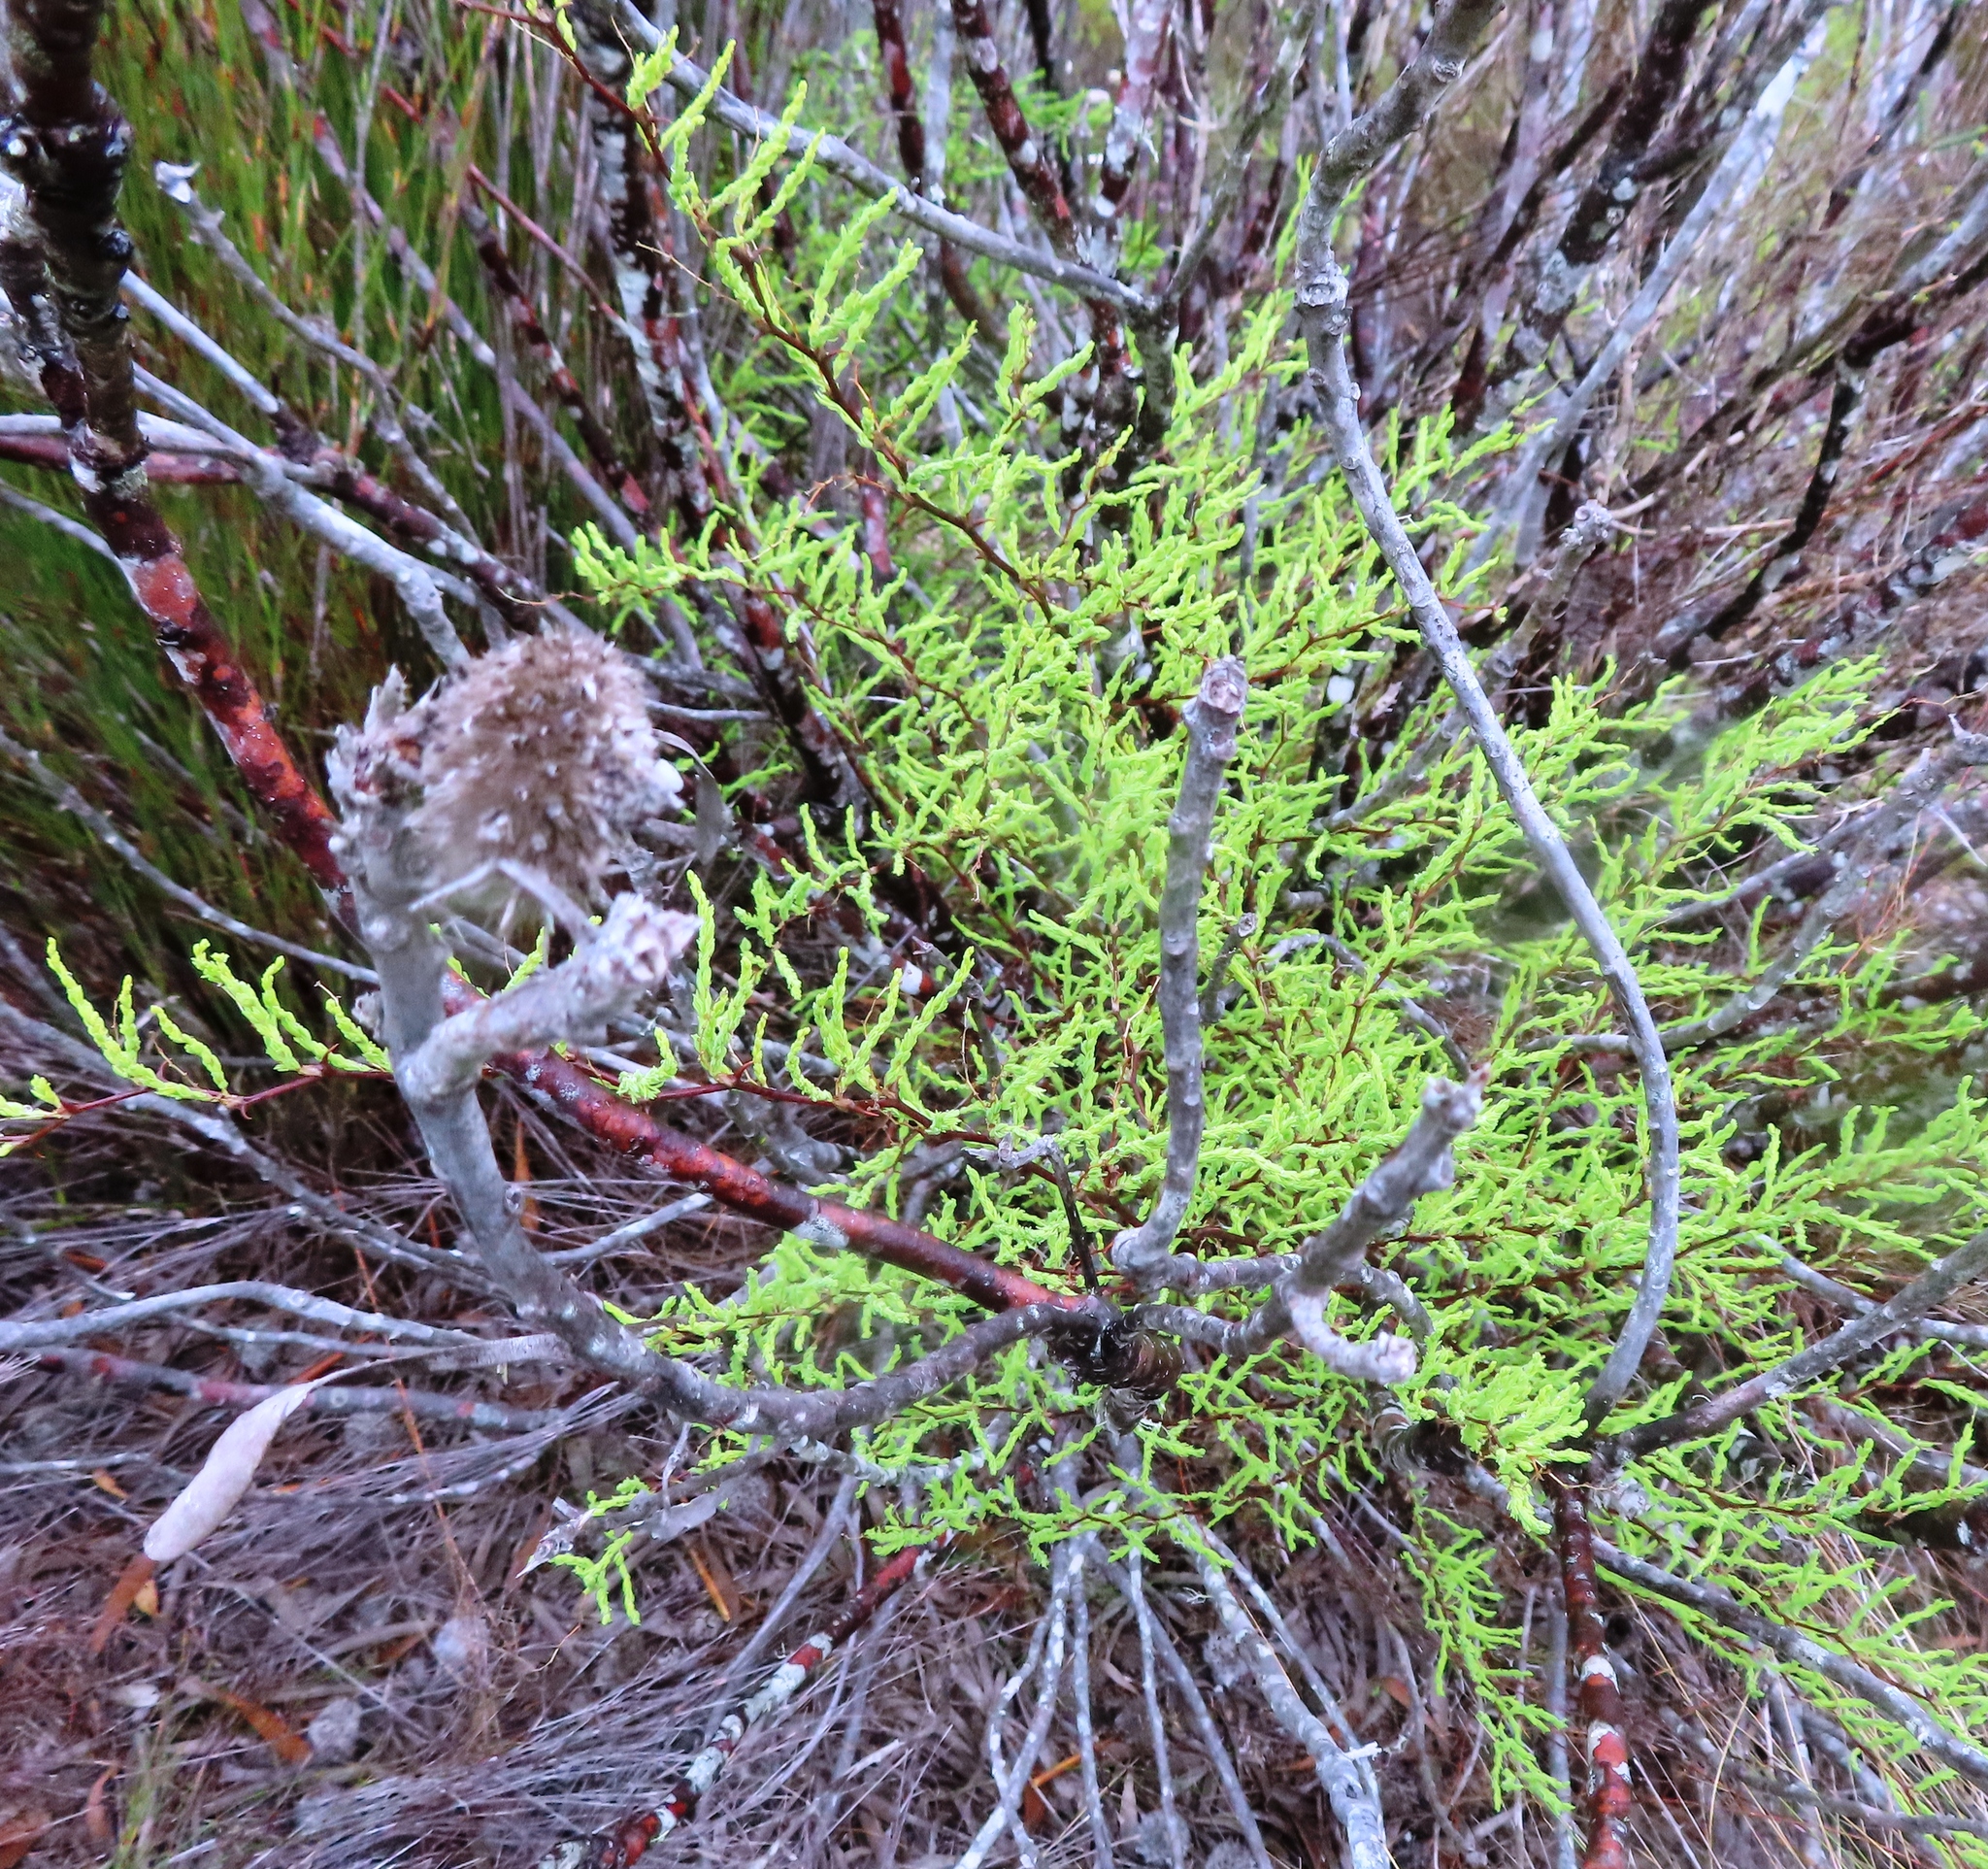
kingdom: Plantae
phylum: Tracheophyta
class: Liliopsida
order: Asparagales
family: Asparagaceae
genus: Asparagus
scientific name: Asparagus rubicundus
